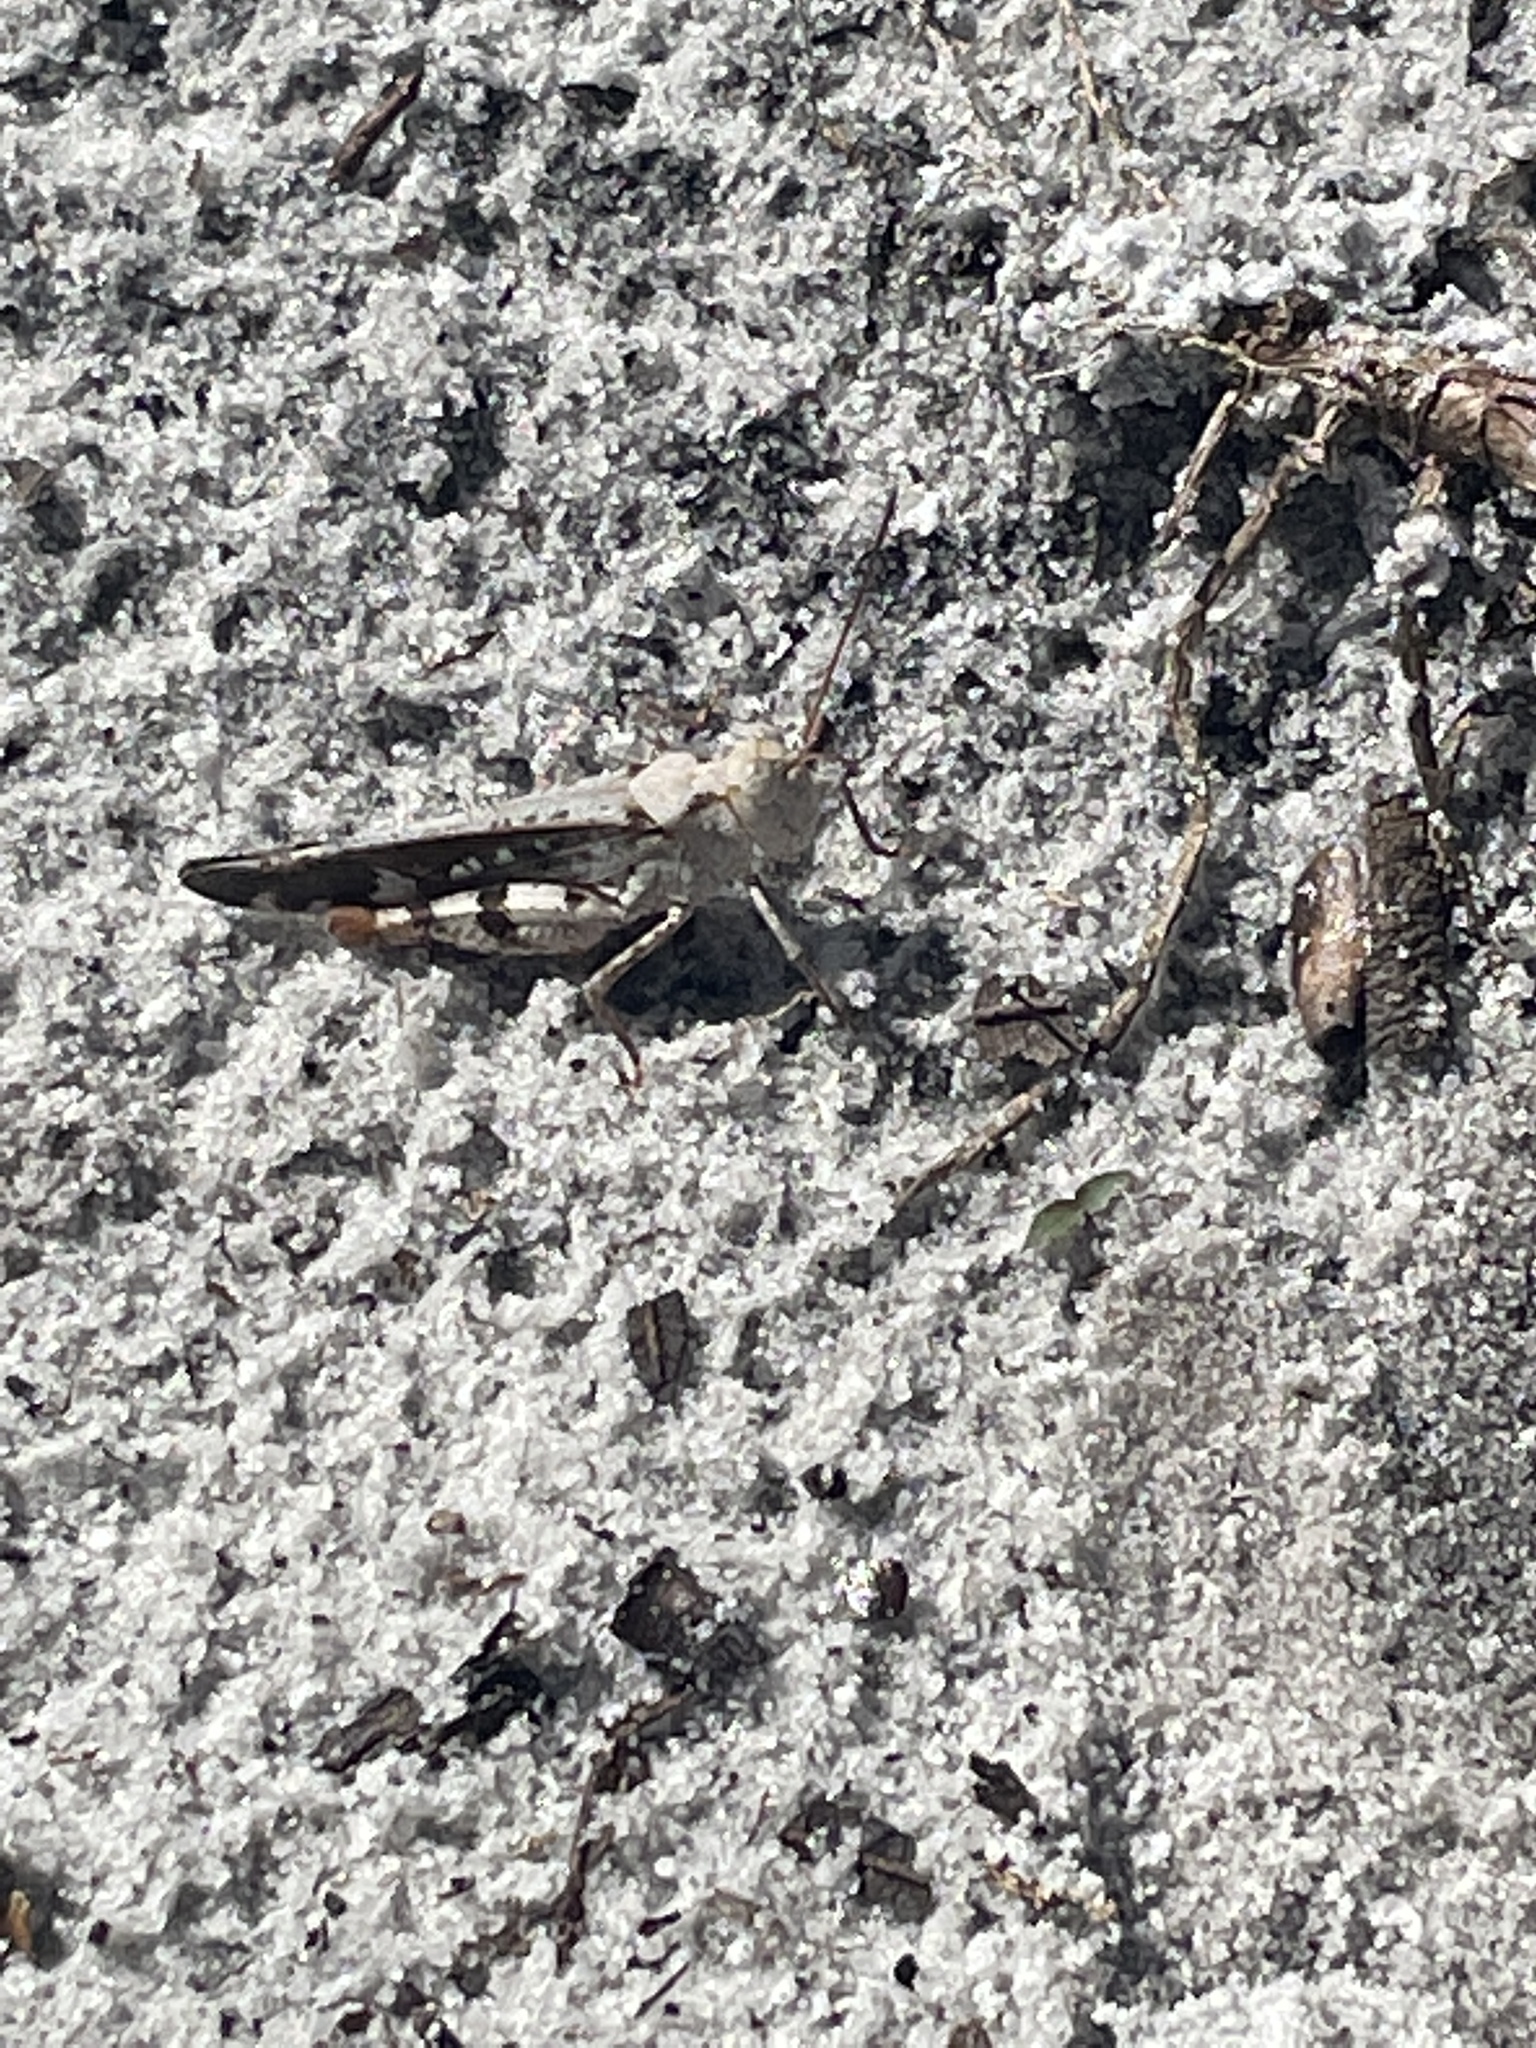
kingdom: Animalia
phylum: Arthropoda
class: Insecta
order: Orthoptera
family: Acrididae
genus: Spharagemon
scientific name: Spharagemon marmoratum
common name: Marbled grasshopper
